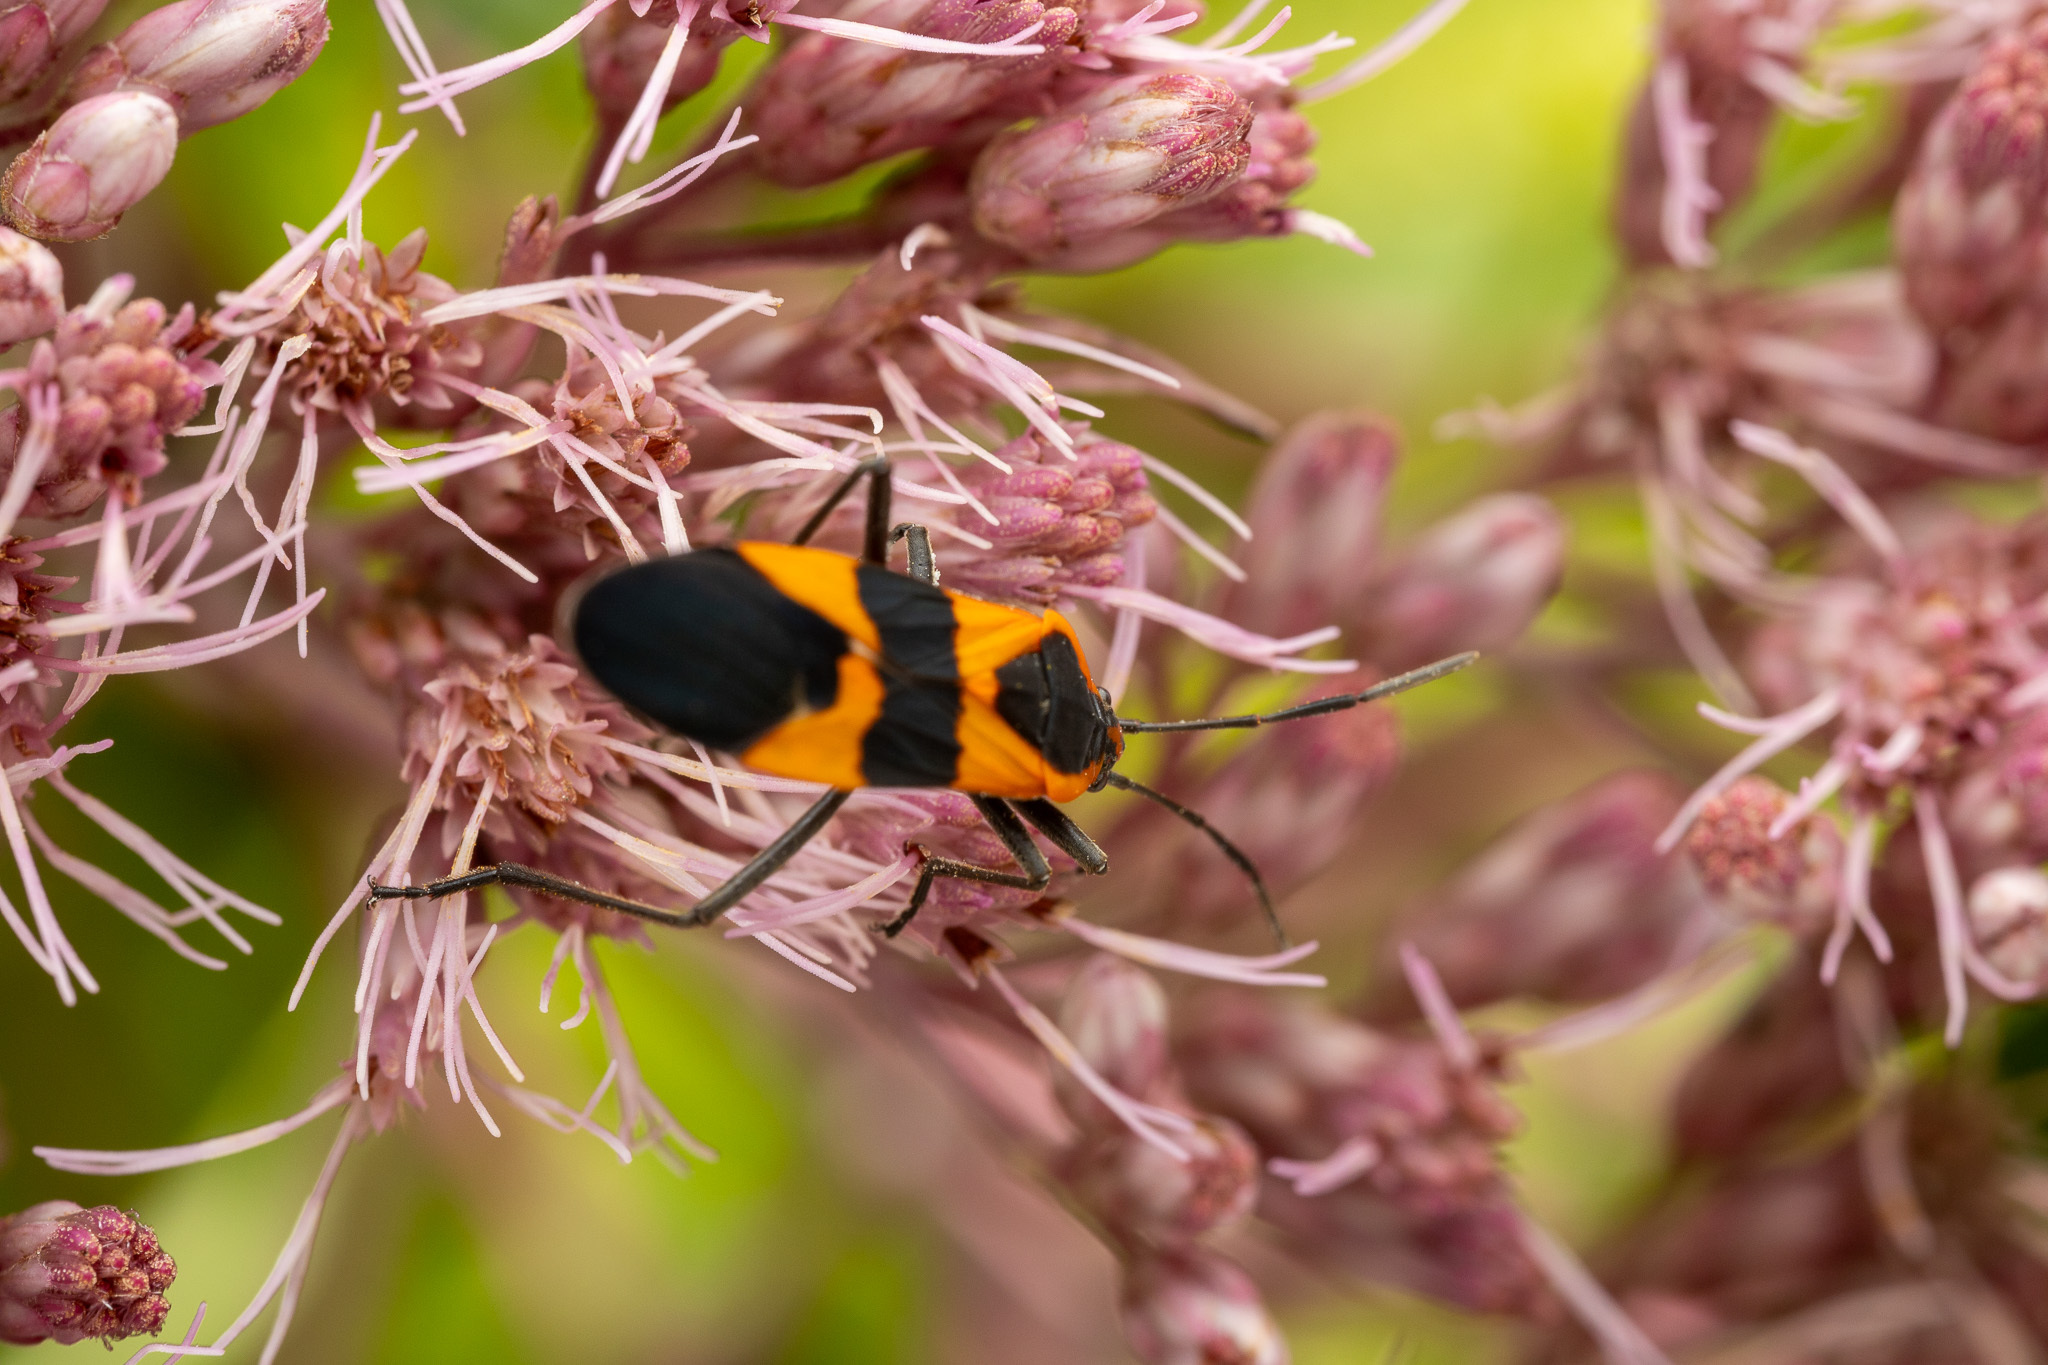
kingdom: Animalia
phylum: Arthropoda
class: Insecta
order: Hemiptera
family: Lygaeidae
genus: Oncopeltus
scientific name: Oncopeltus fasciatus
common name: Large milkweed bug
